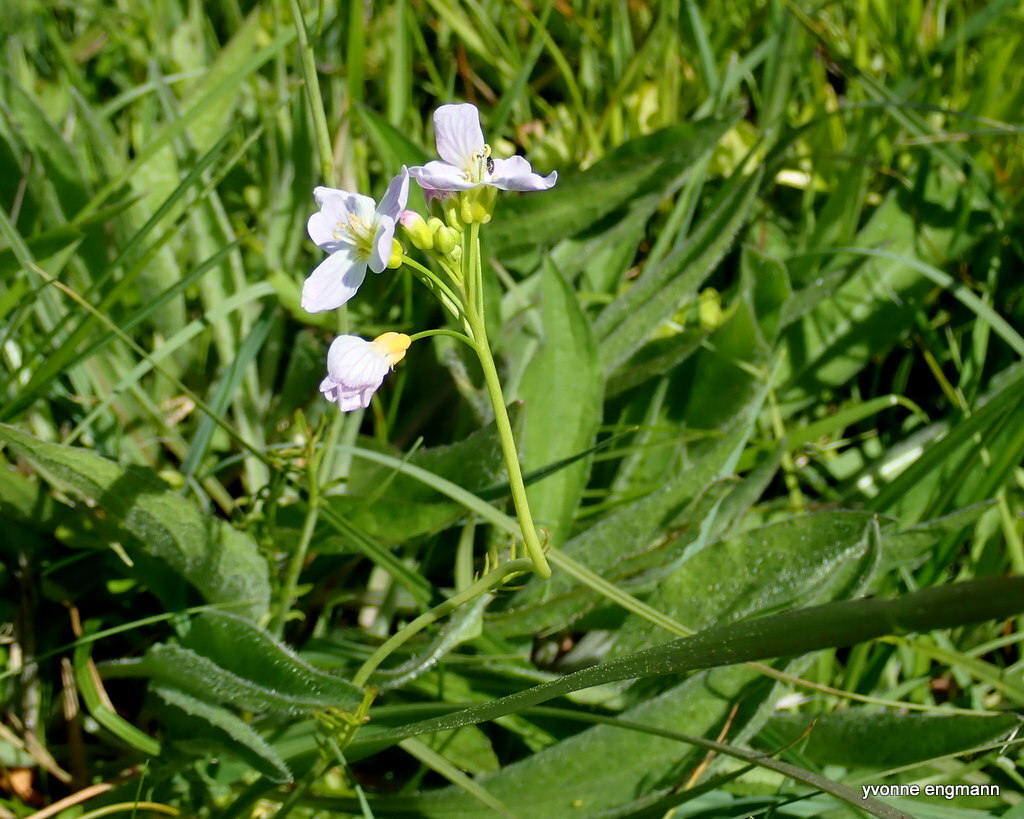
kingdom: Plantae
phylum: Tracheophyta
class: Magnoliopsida
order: Brassicales
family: Brassicaceae
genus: Cardamine
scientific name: Cardamine pratensis
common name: Cuckoo flower
